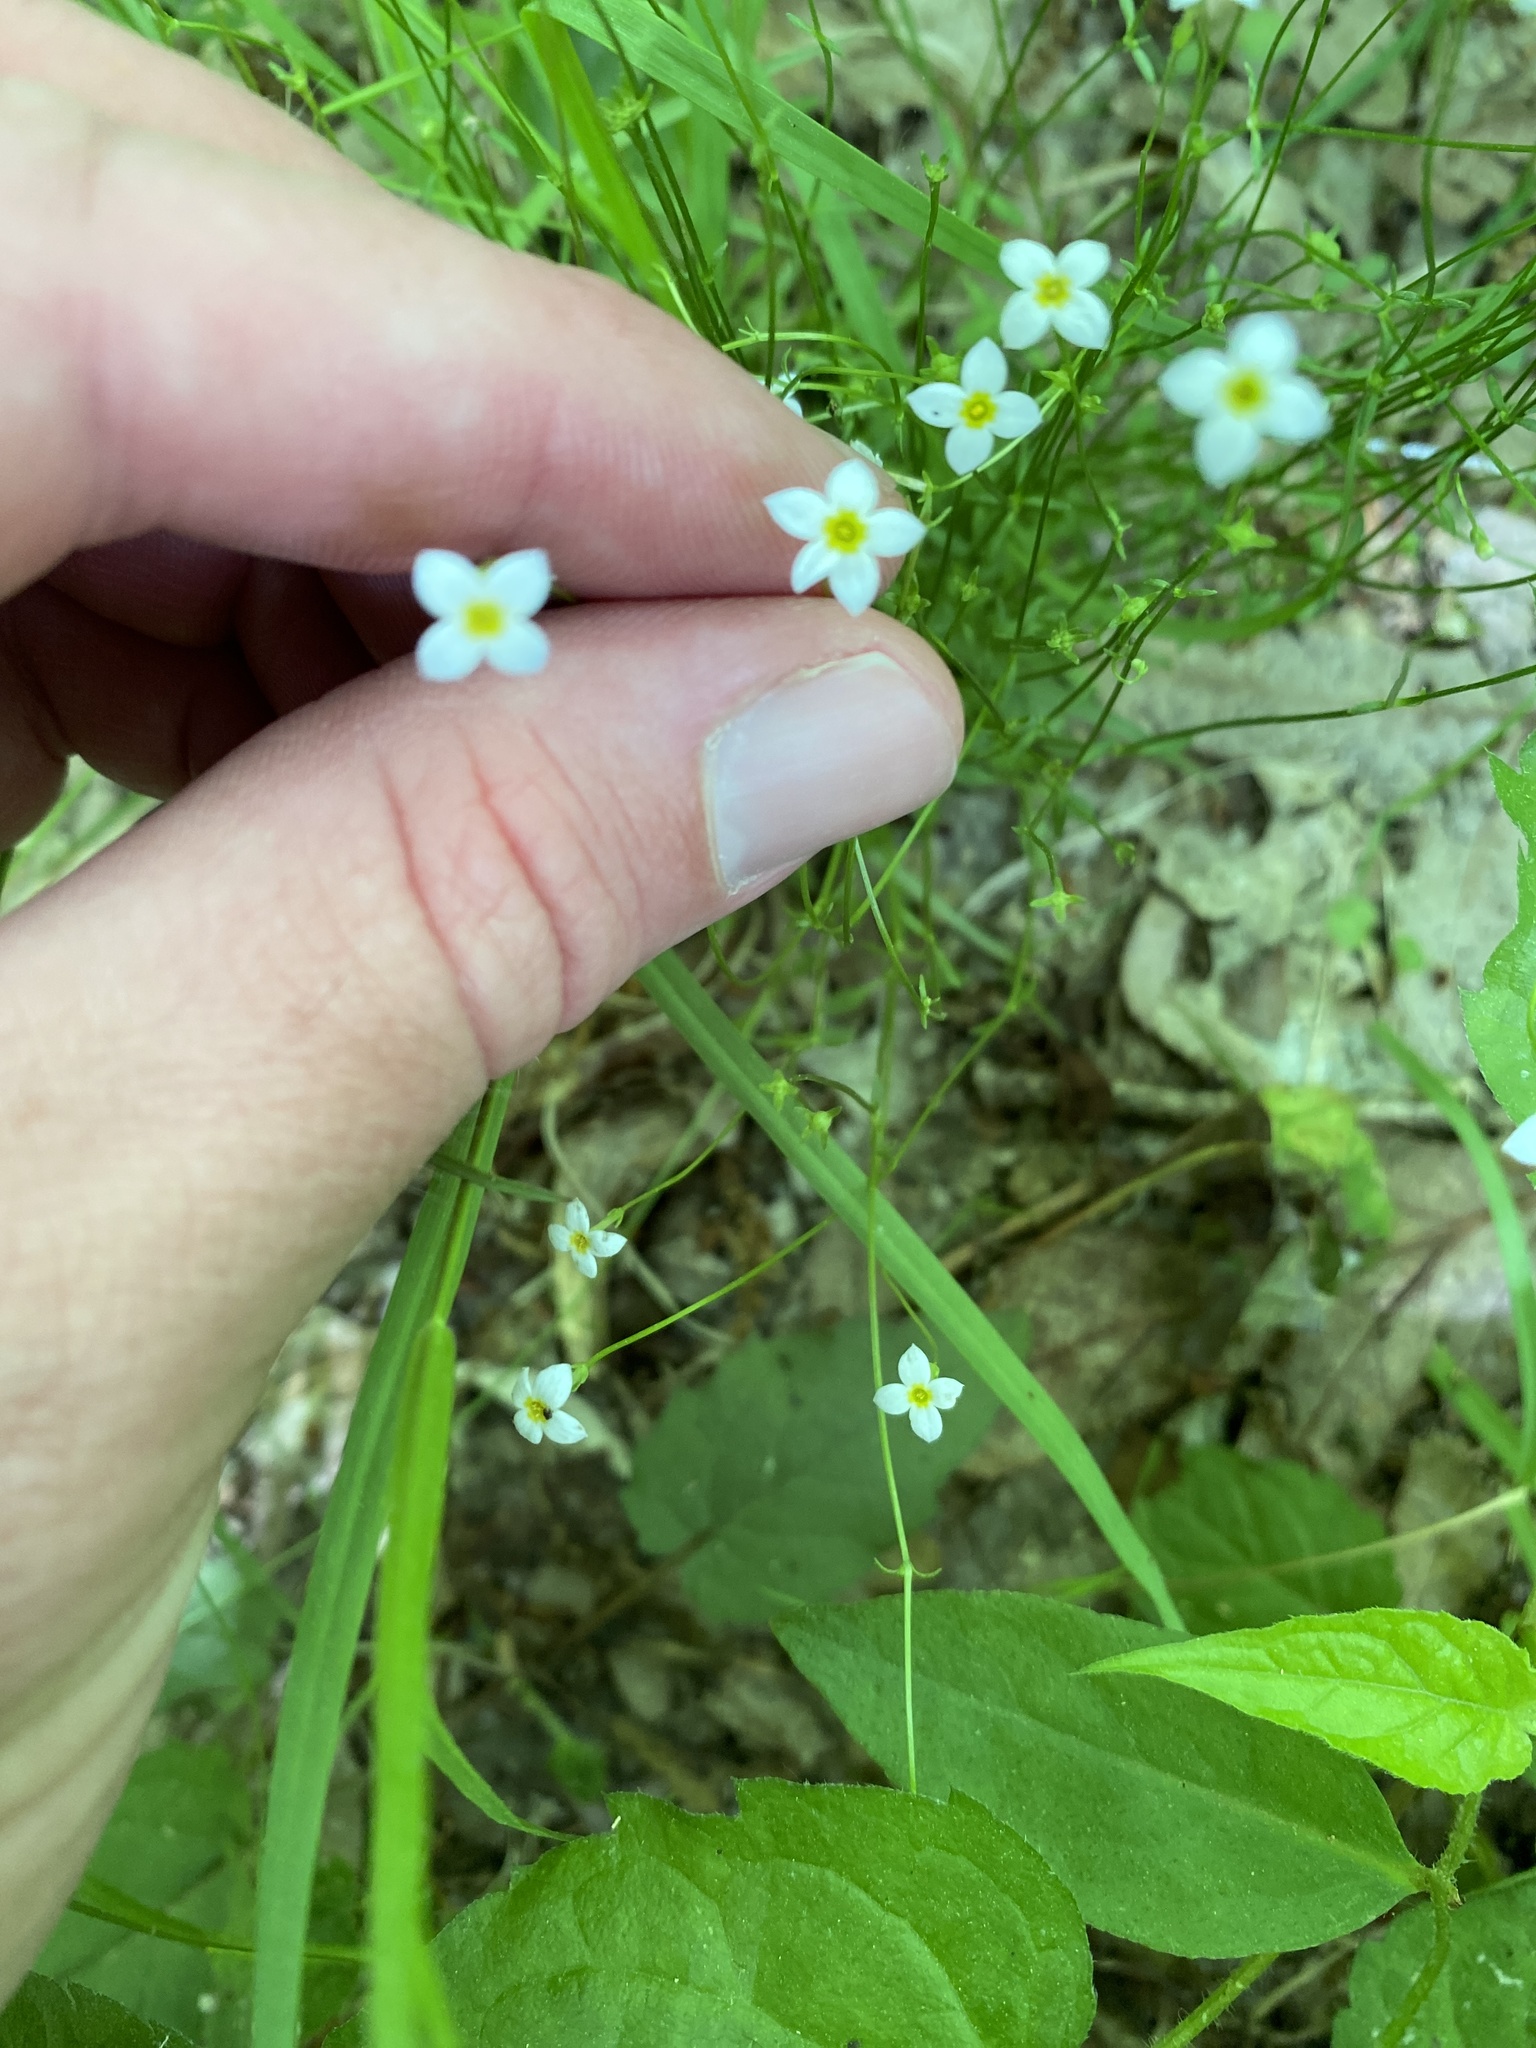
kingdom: Plantae
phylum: Tracheophyta
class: Magnoliopsida
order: Gentianales
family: Rubiaceae
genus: Houstonia
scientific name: Houstonia caerulea
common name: Bluets
